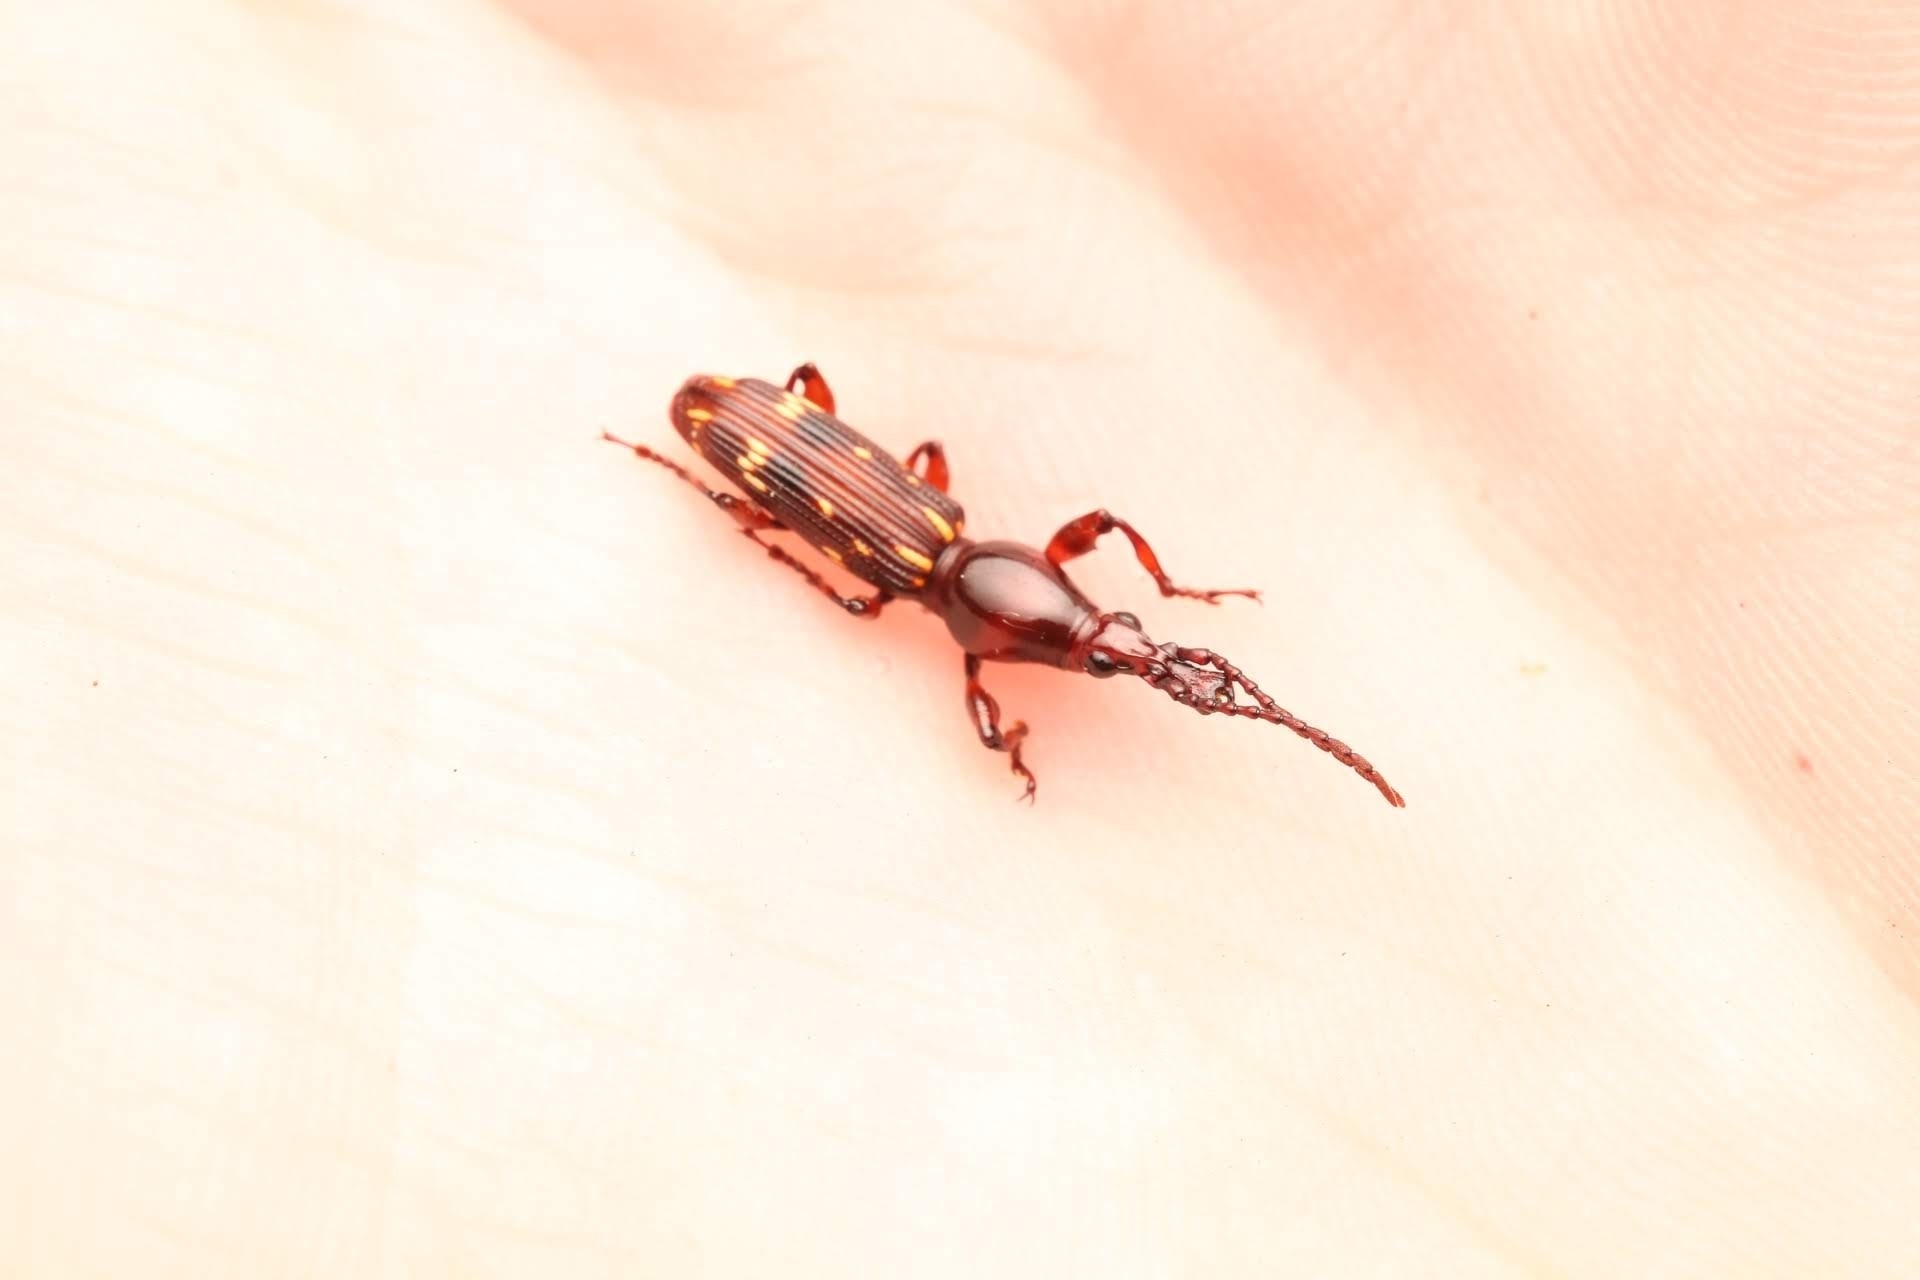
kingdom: Animalia
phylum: Arthropoda
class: Insecta
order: Coleoptera
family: Brentidae
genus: Arrenodes
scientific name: Arrenodes minutus
